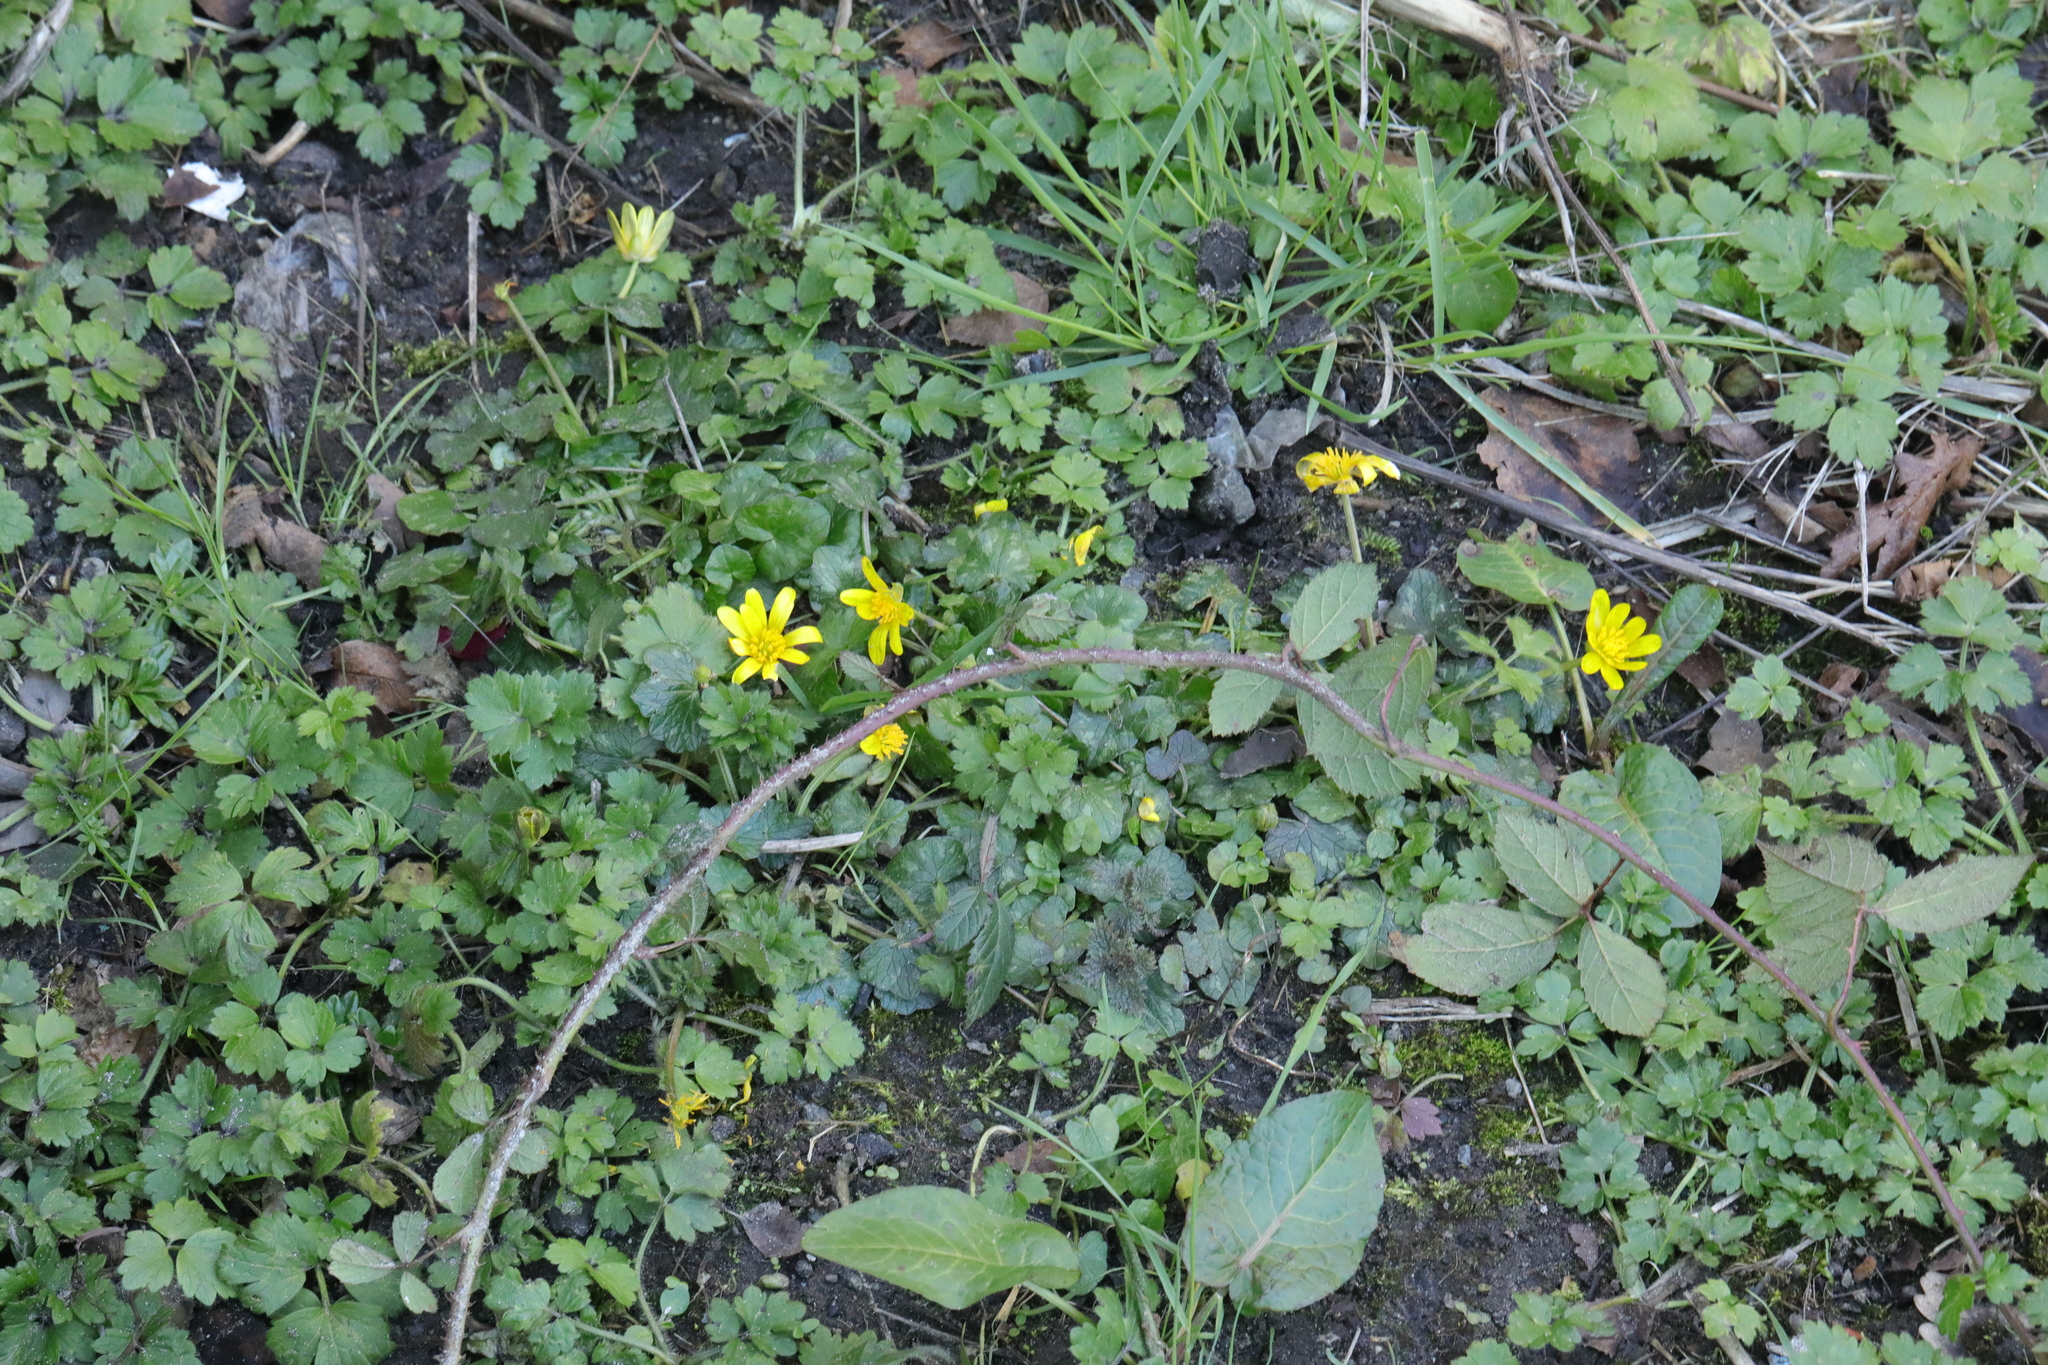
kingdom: Plantae
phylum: Tracheophyta
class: Magnoliopsida
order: Ranunculales
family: Ranunculaceae
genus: Ficaria
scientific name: Ficaria verna
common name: Lesser celandine
